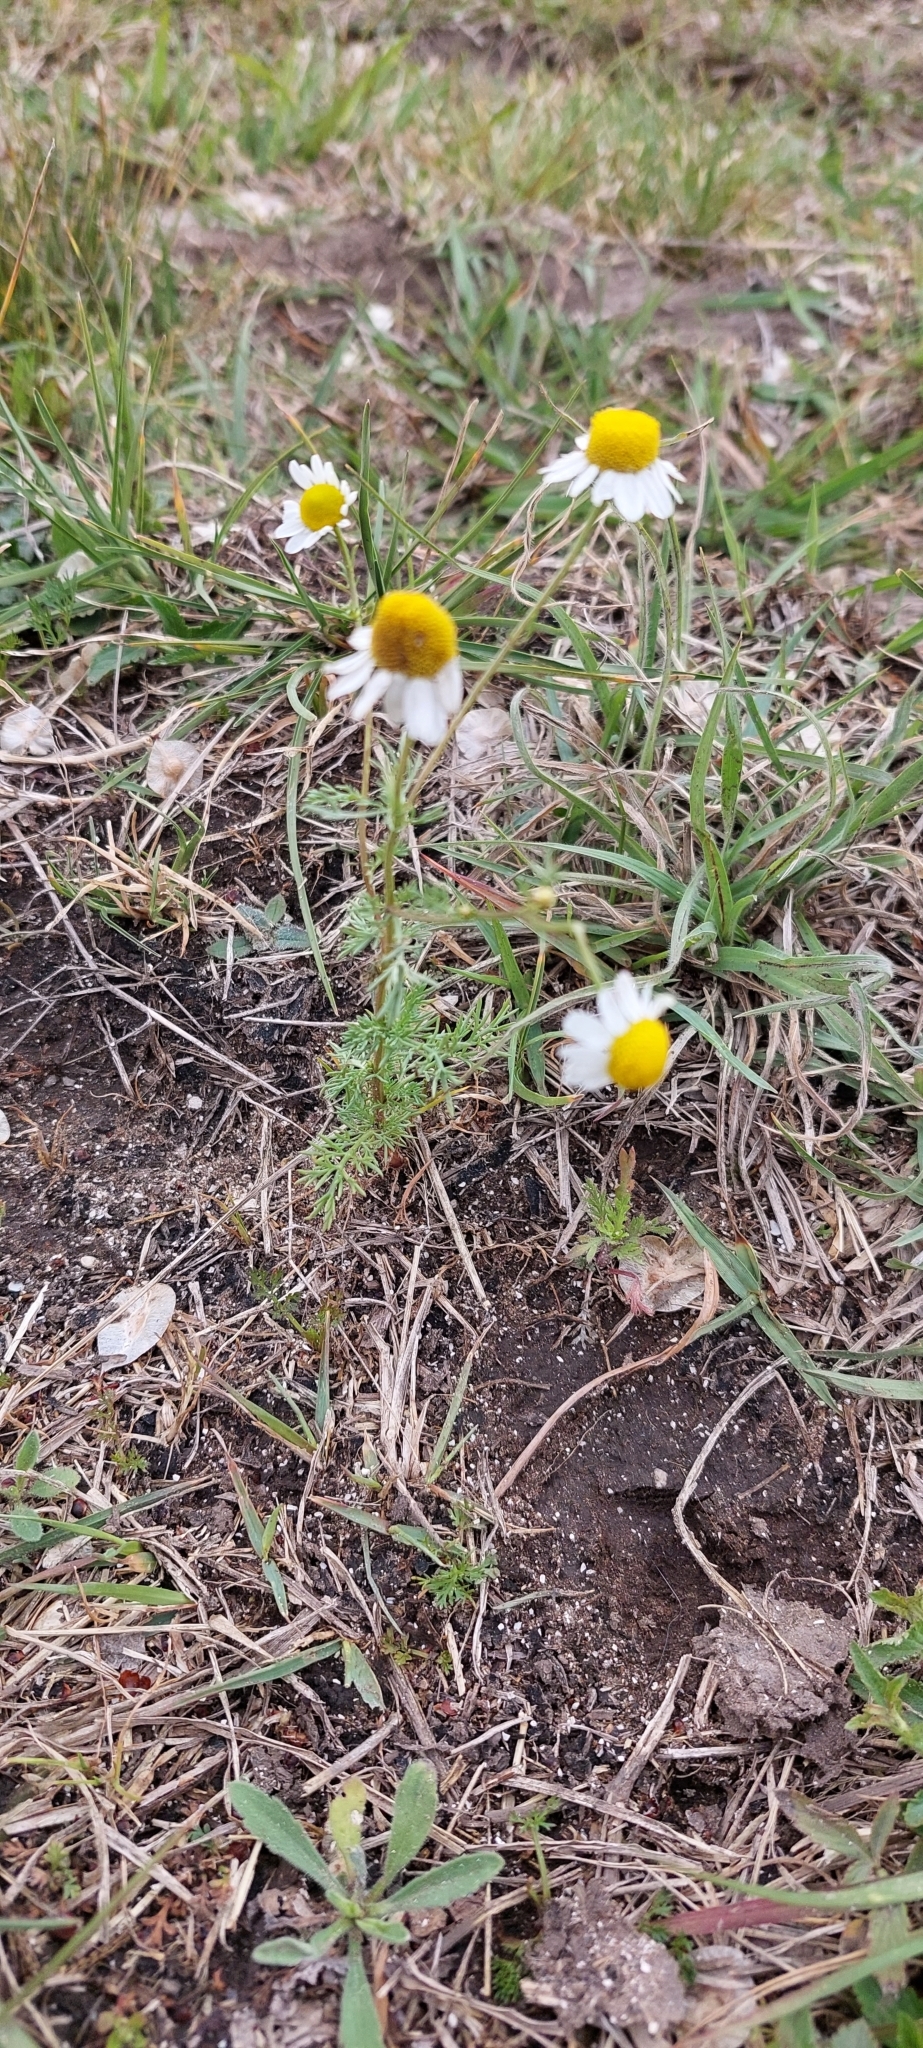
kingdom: Plantae
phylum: Tracheophyta
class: Magnoliopsida
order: Asterales
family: Asteraceae
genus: Matricaria
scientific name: Matricaria chamomilla
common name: Scented mayweed
